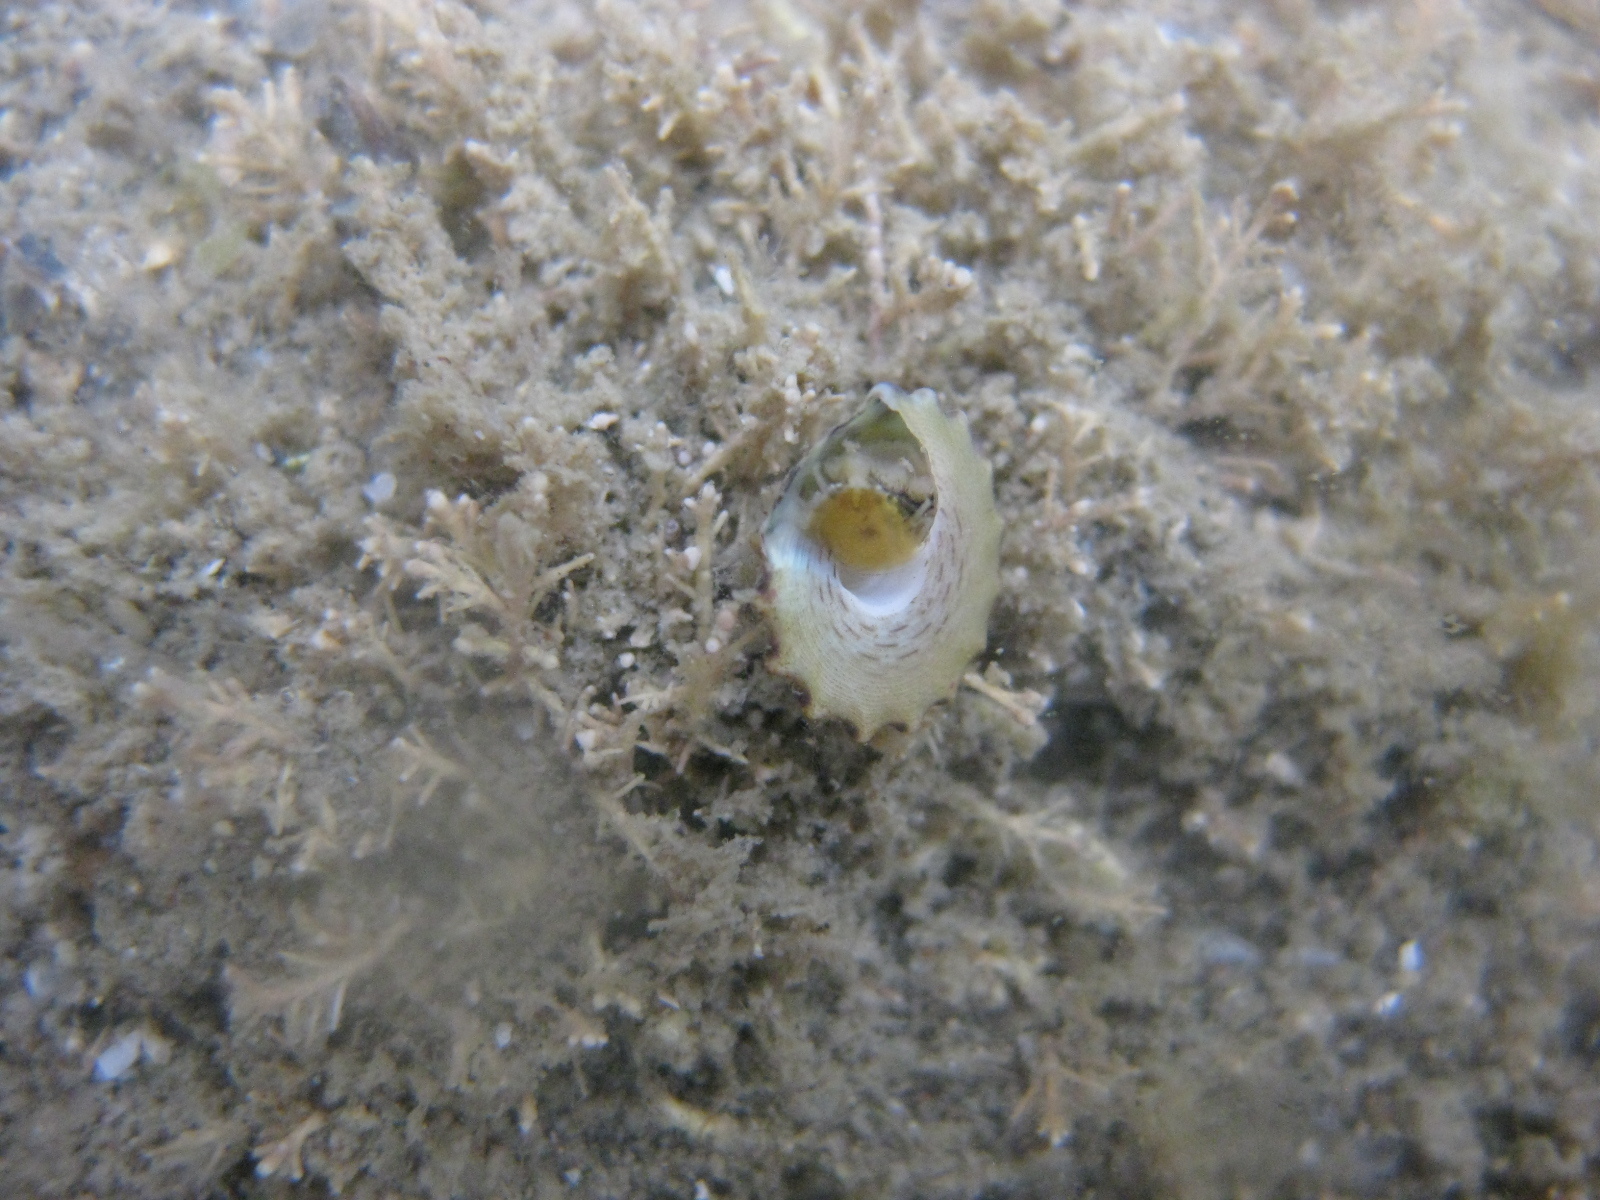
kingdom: Animalia
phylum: Mollusca
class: Gastropoda
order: Trochida
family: Trochidae
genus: Coelotrochus
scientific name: Coelotrochus viridis
